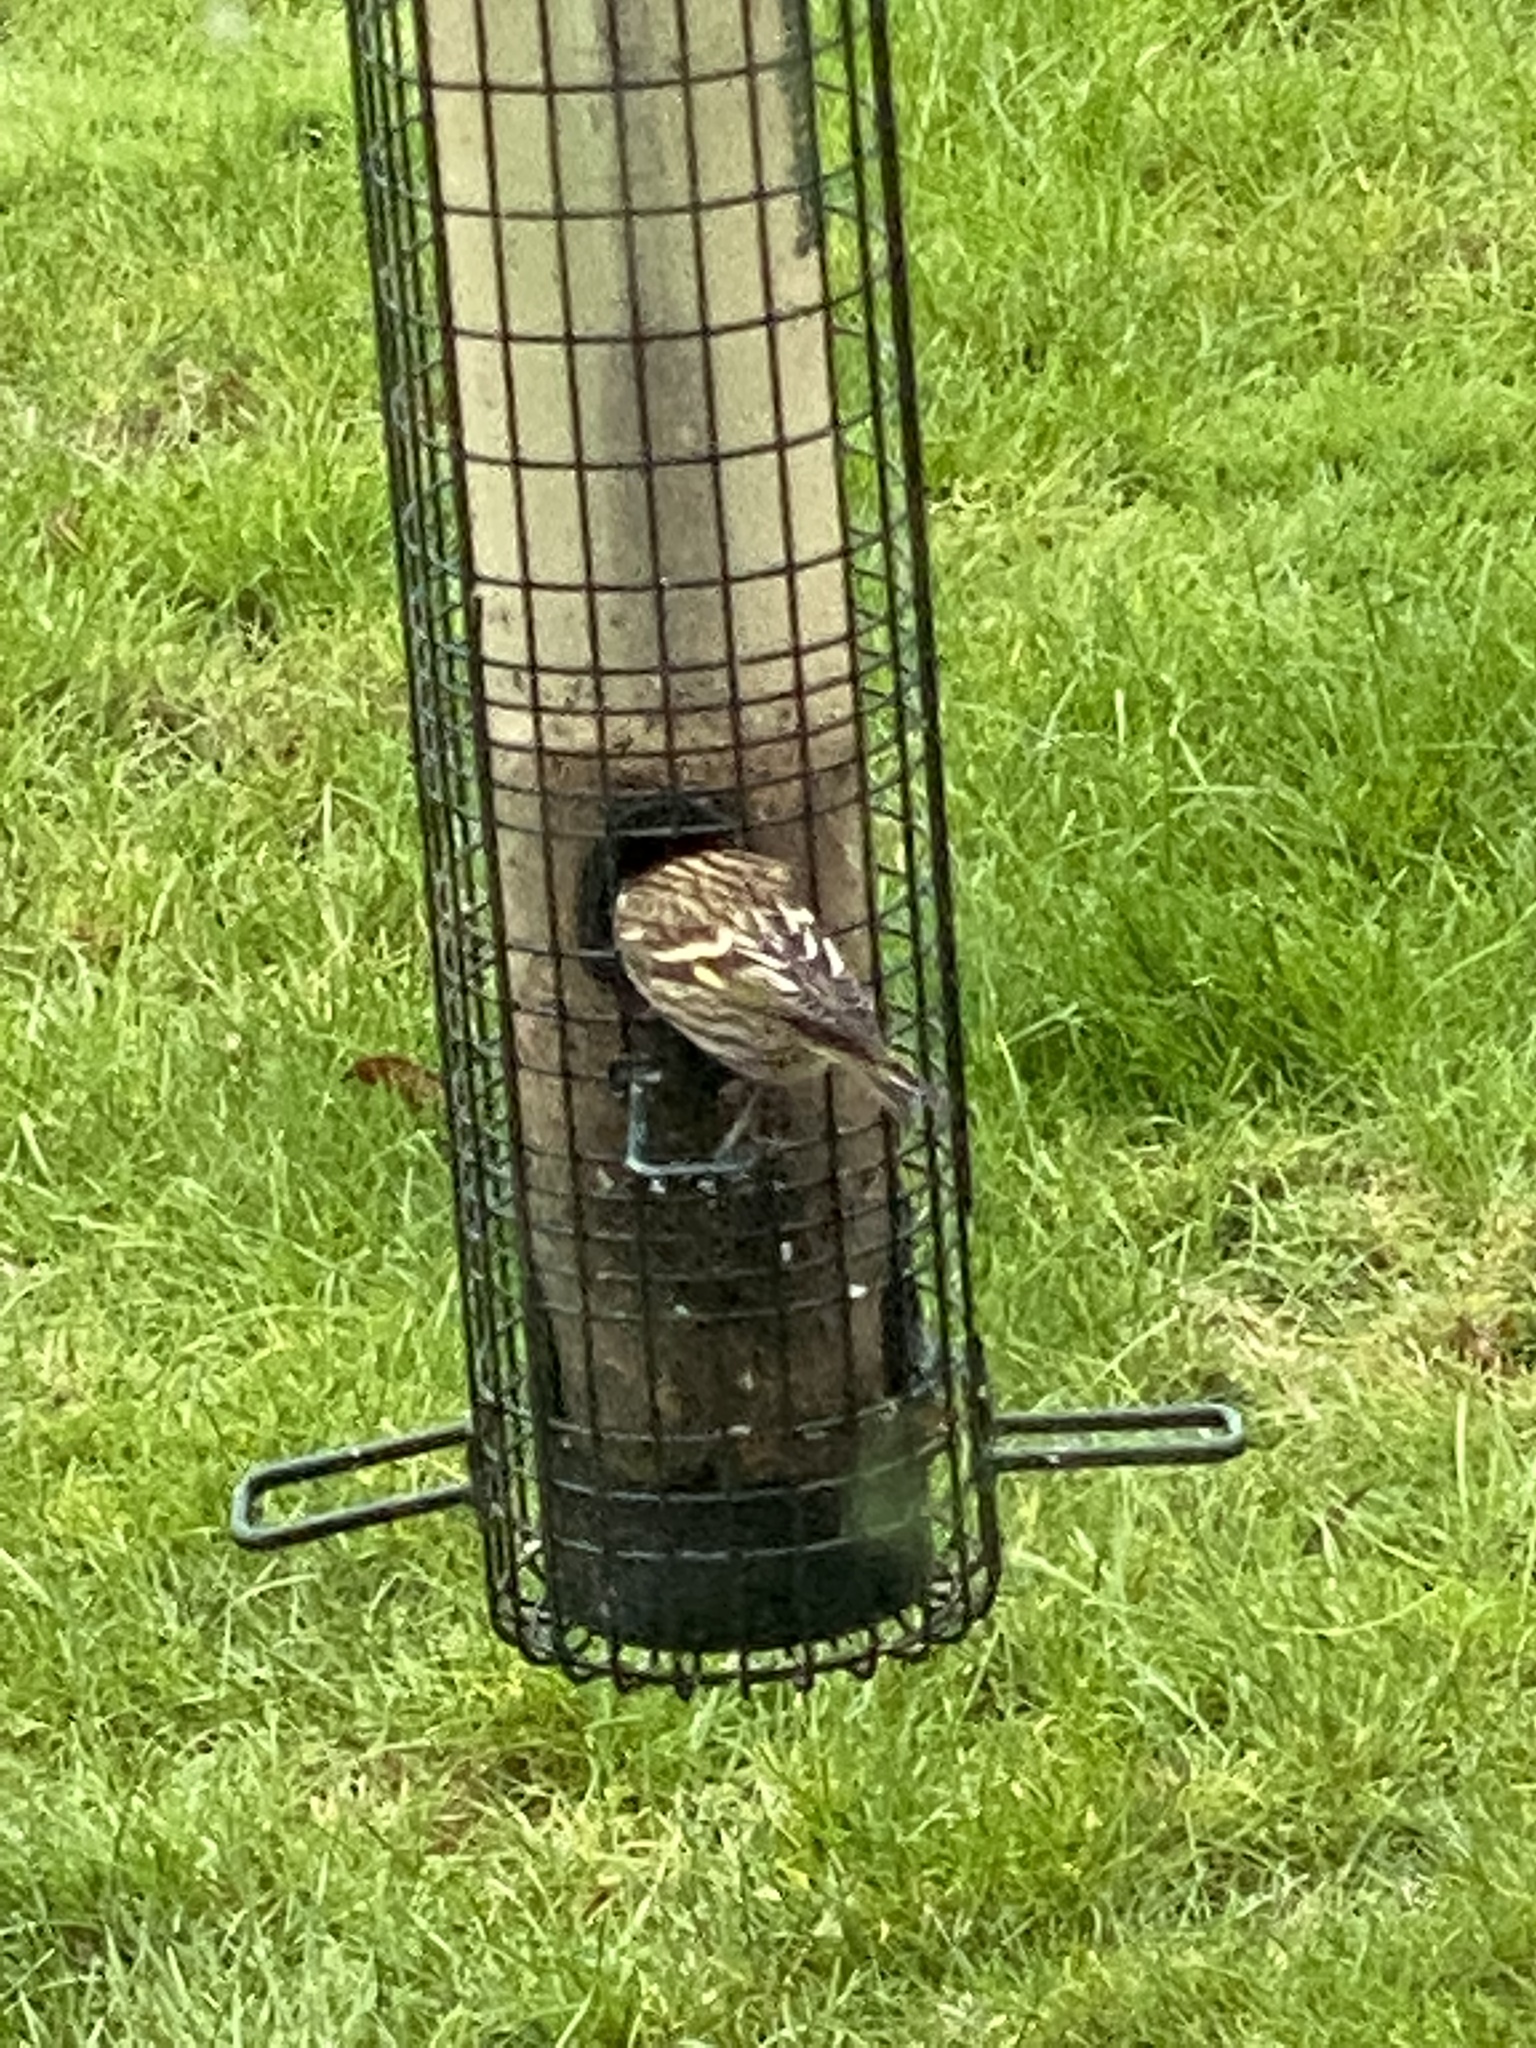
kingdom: Animalia
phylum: Chordata
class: Aves
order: Passeriformes
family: Fringillidae
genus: Spinus
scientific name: Spinus pinus
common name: Pine siskin
